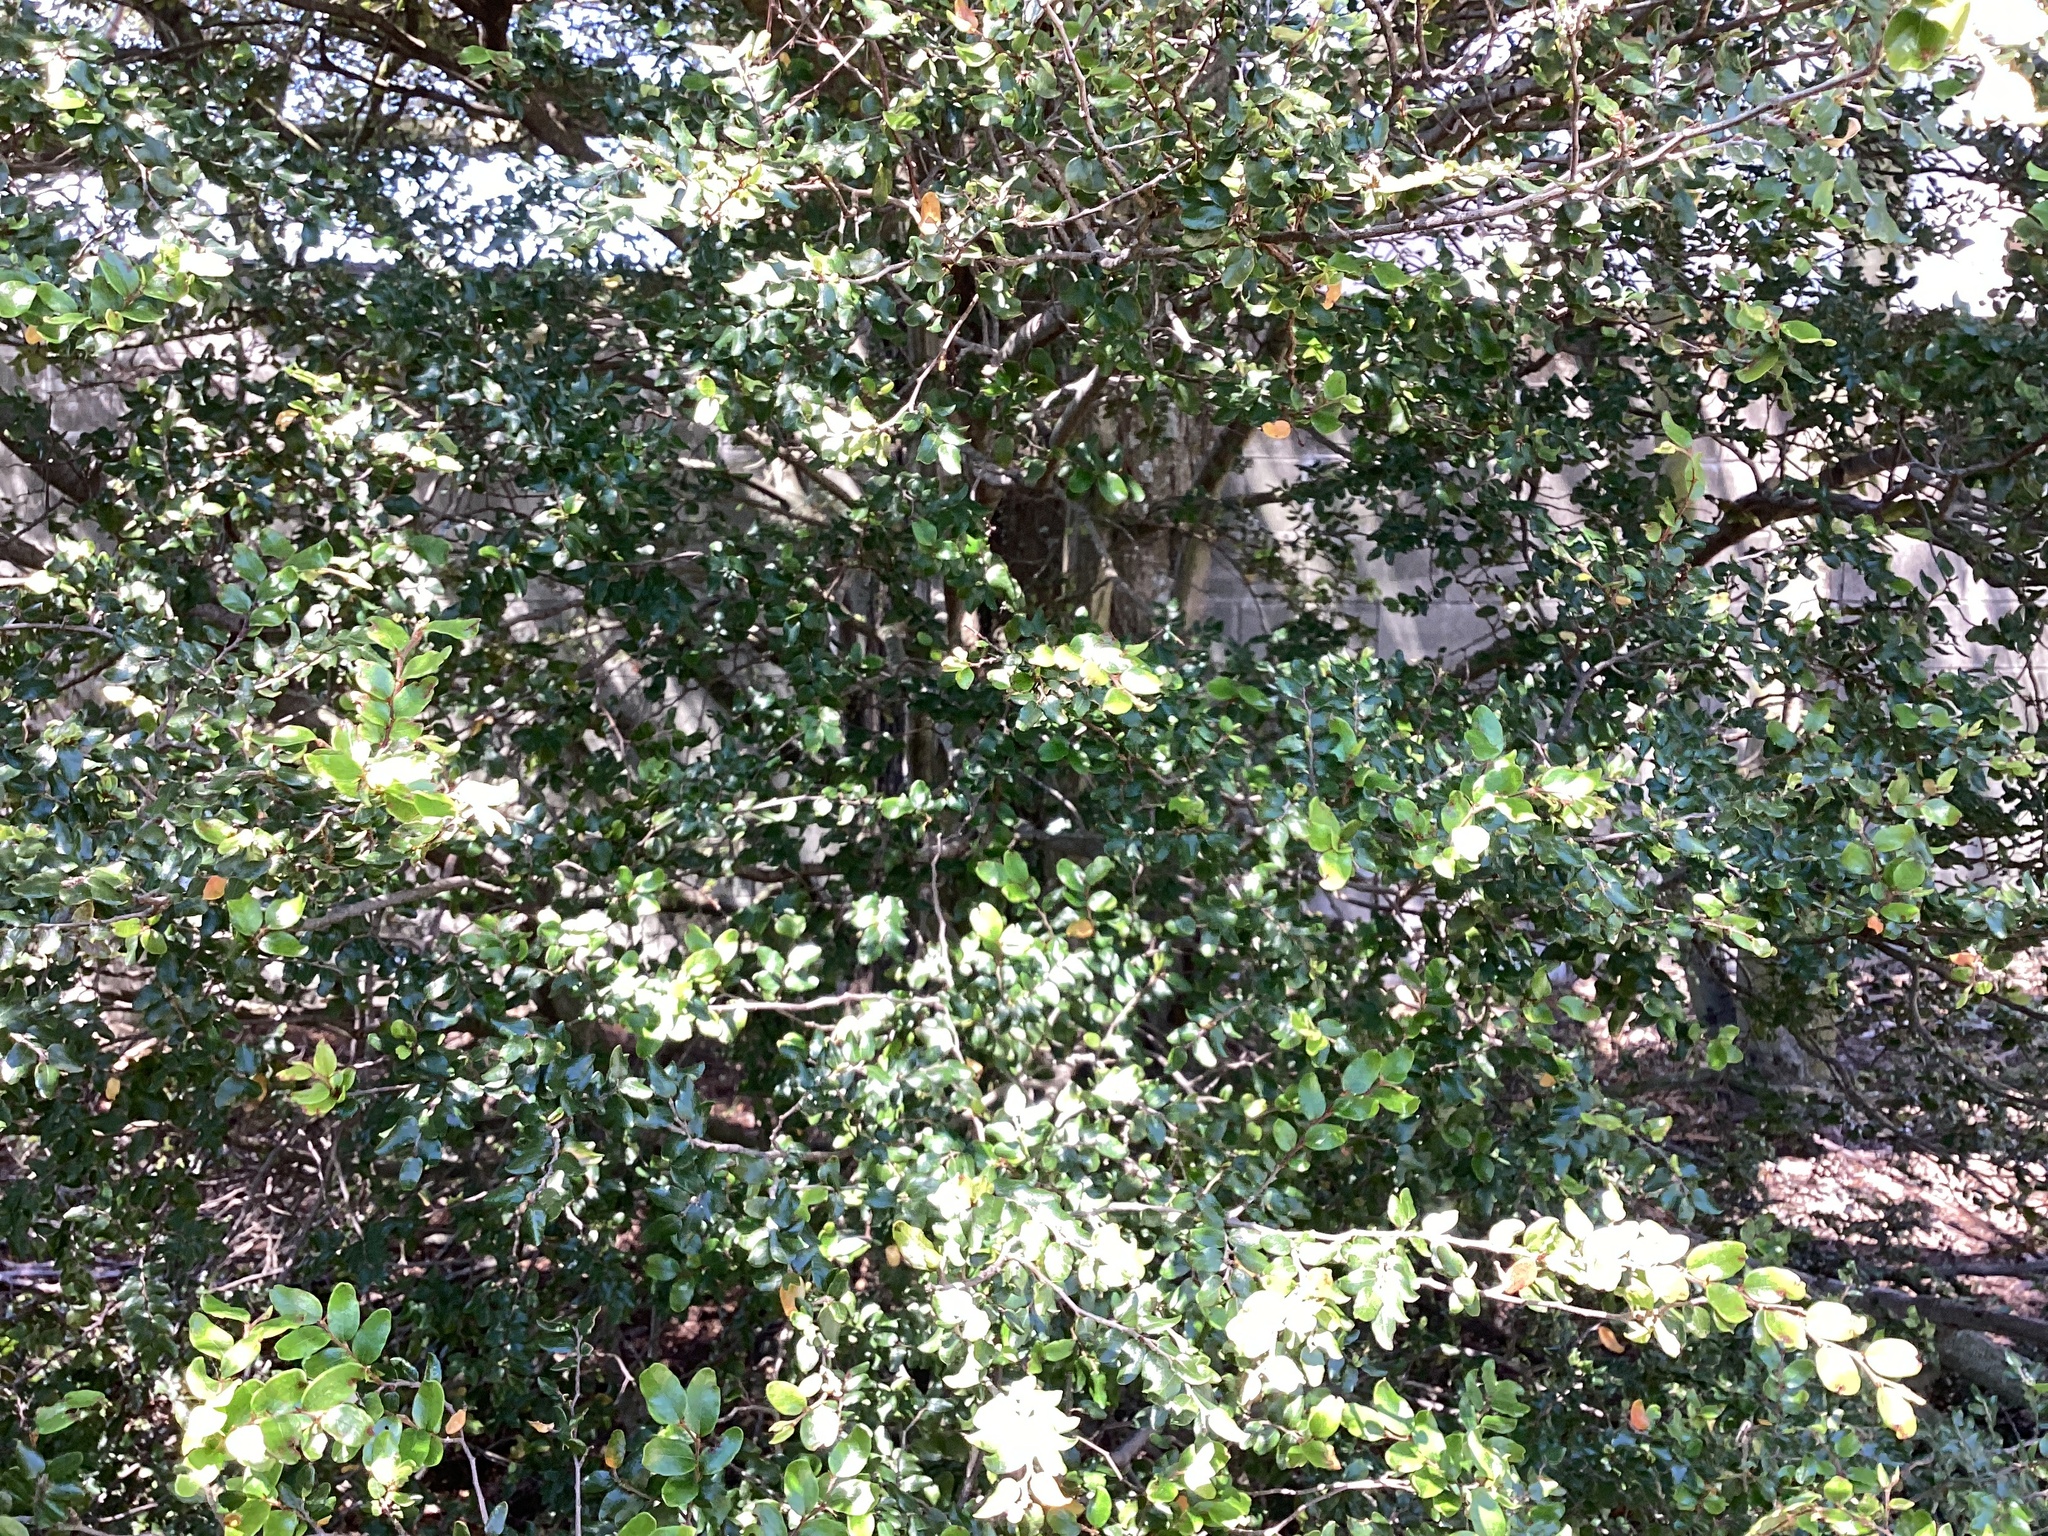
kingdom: Plantae
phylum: Tracheophyta
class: Magnoliopsida
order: Fagales
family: Nothofagaceae
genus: Nothofagus
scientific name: Nothofagus solandri
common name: Black beech
